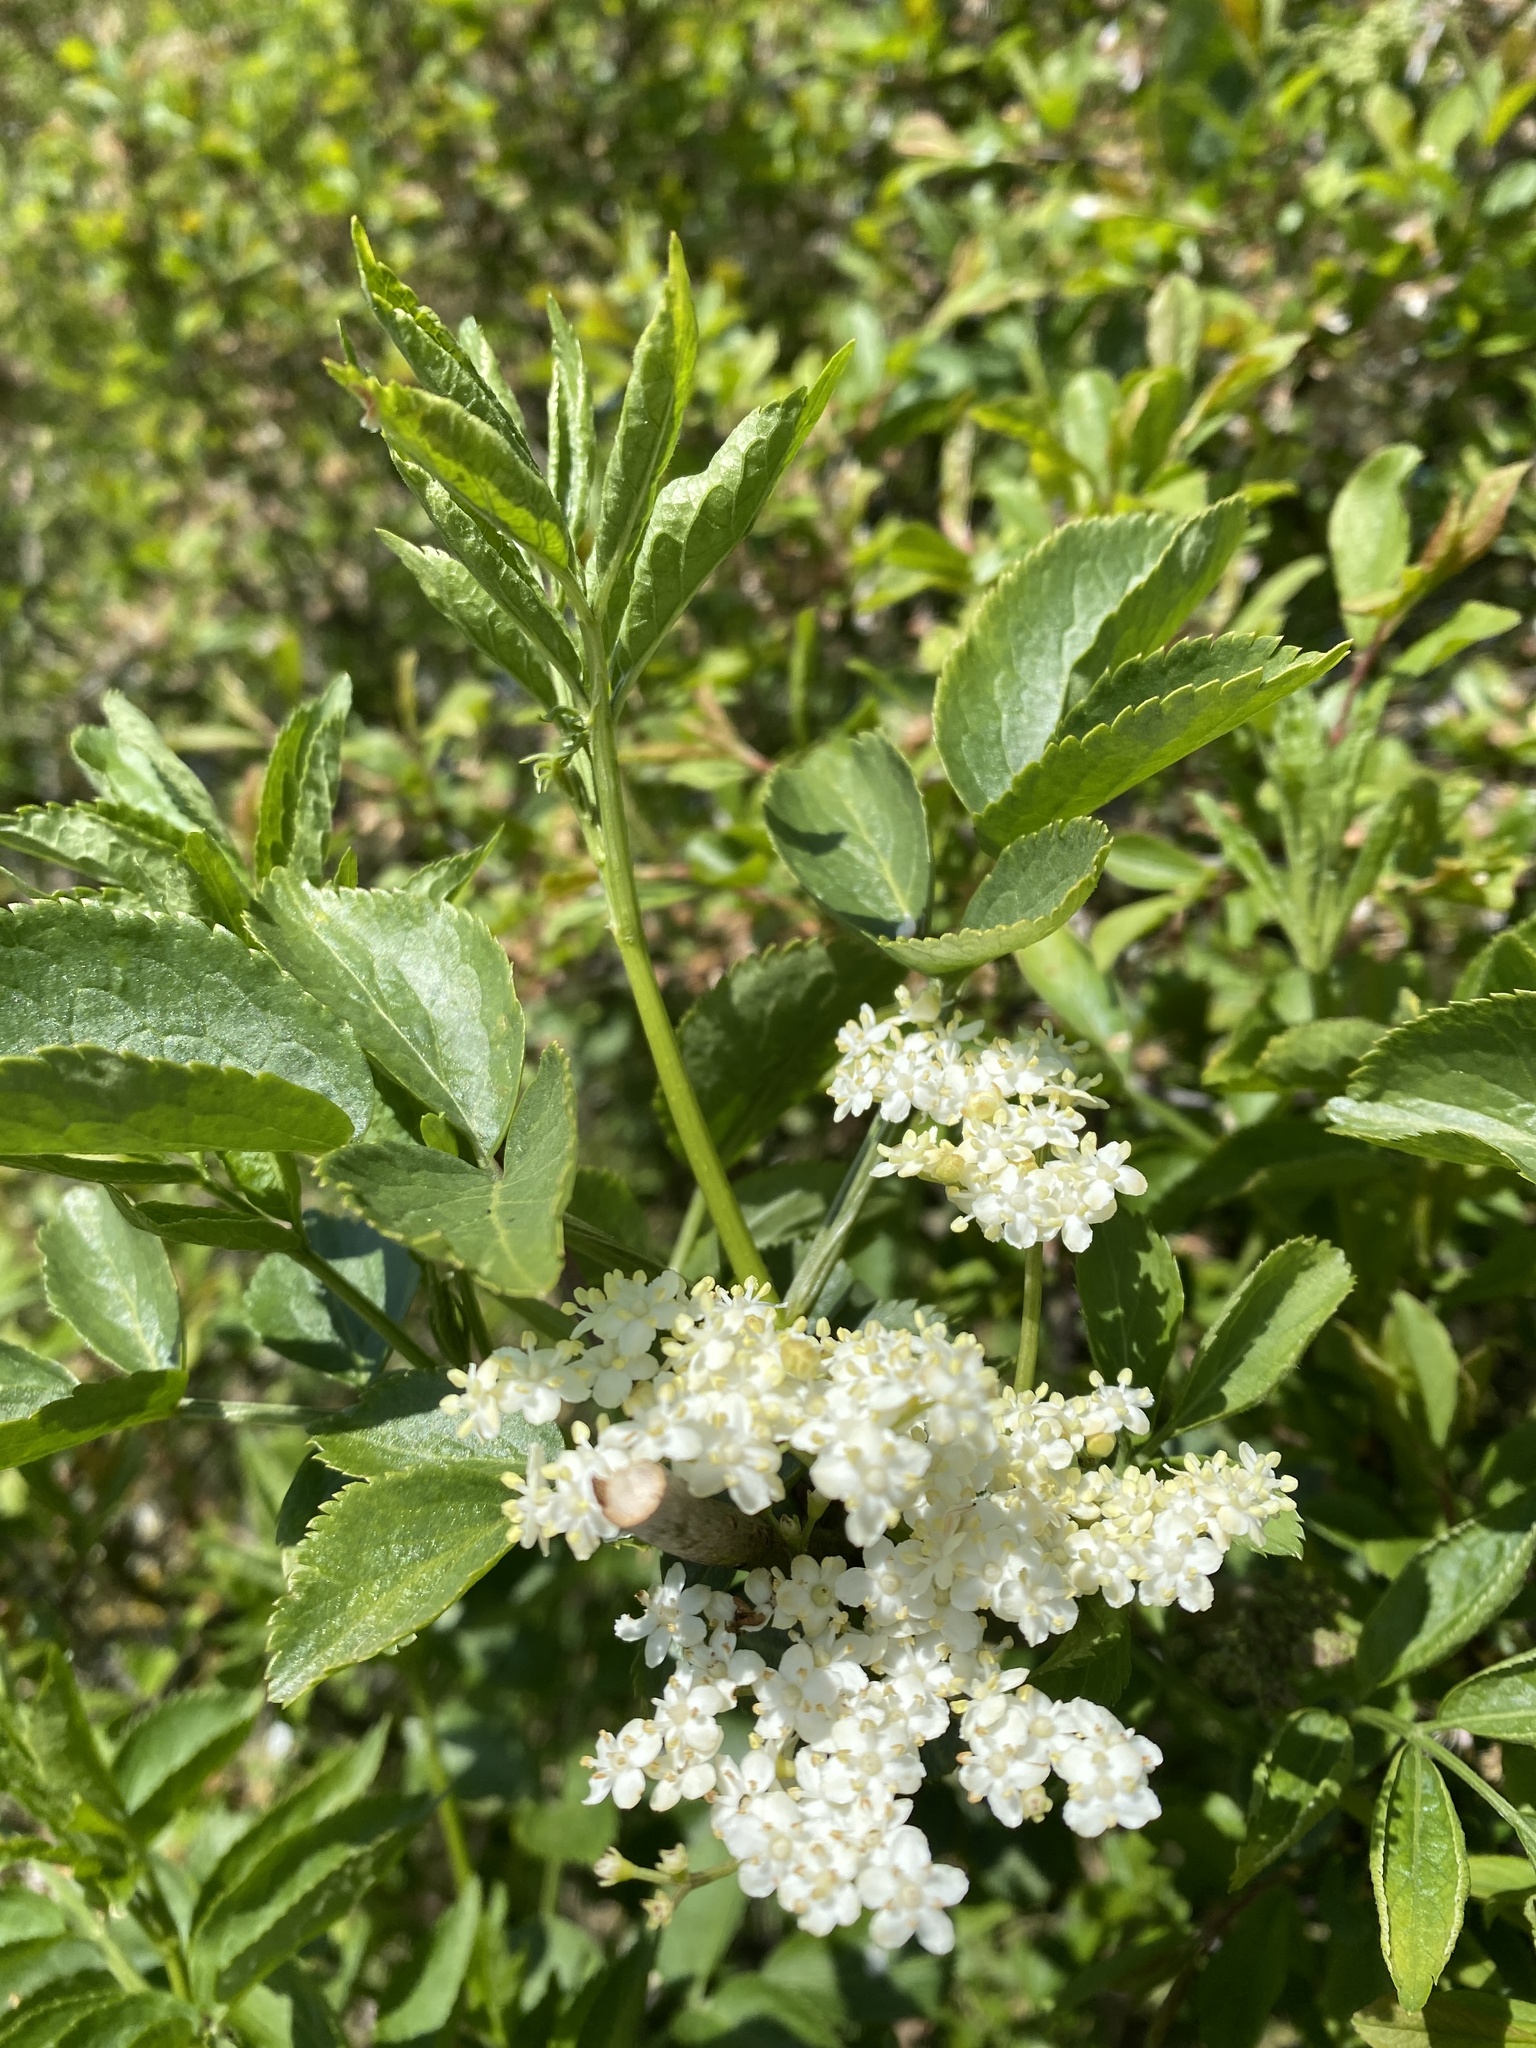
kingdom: Plantae
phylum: Tracheophyta
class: Magnoliopsida
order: Dipsacales
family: Viburnaceae
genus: Sambucus
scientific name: Sambucus nigra
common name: Elder
